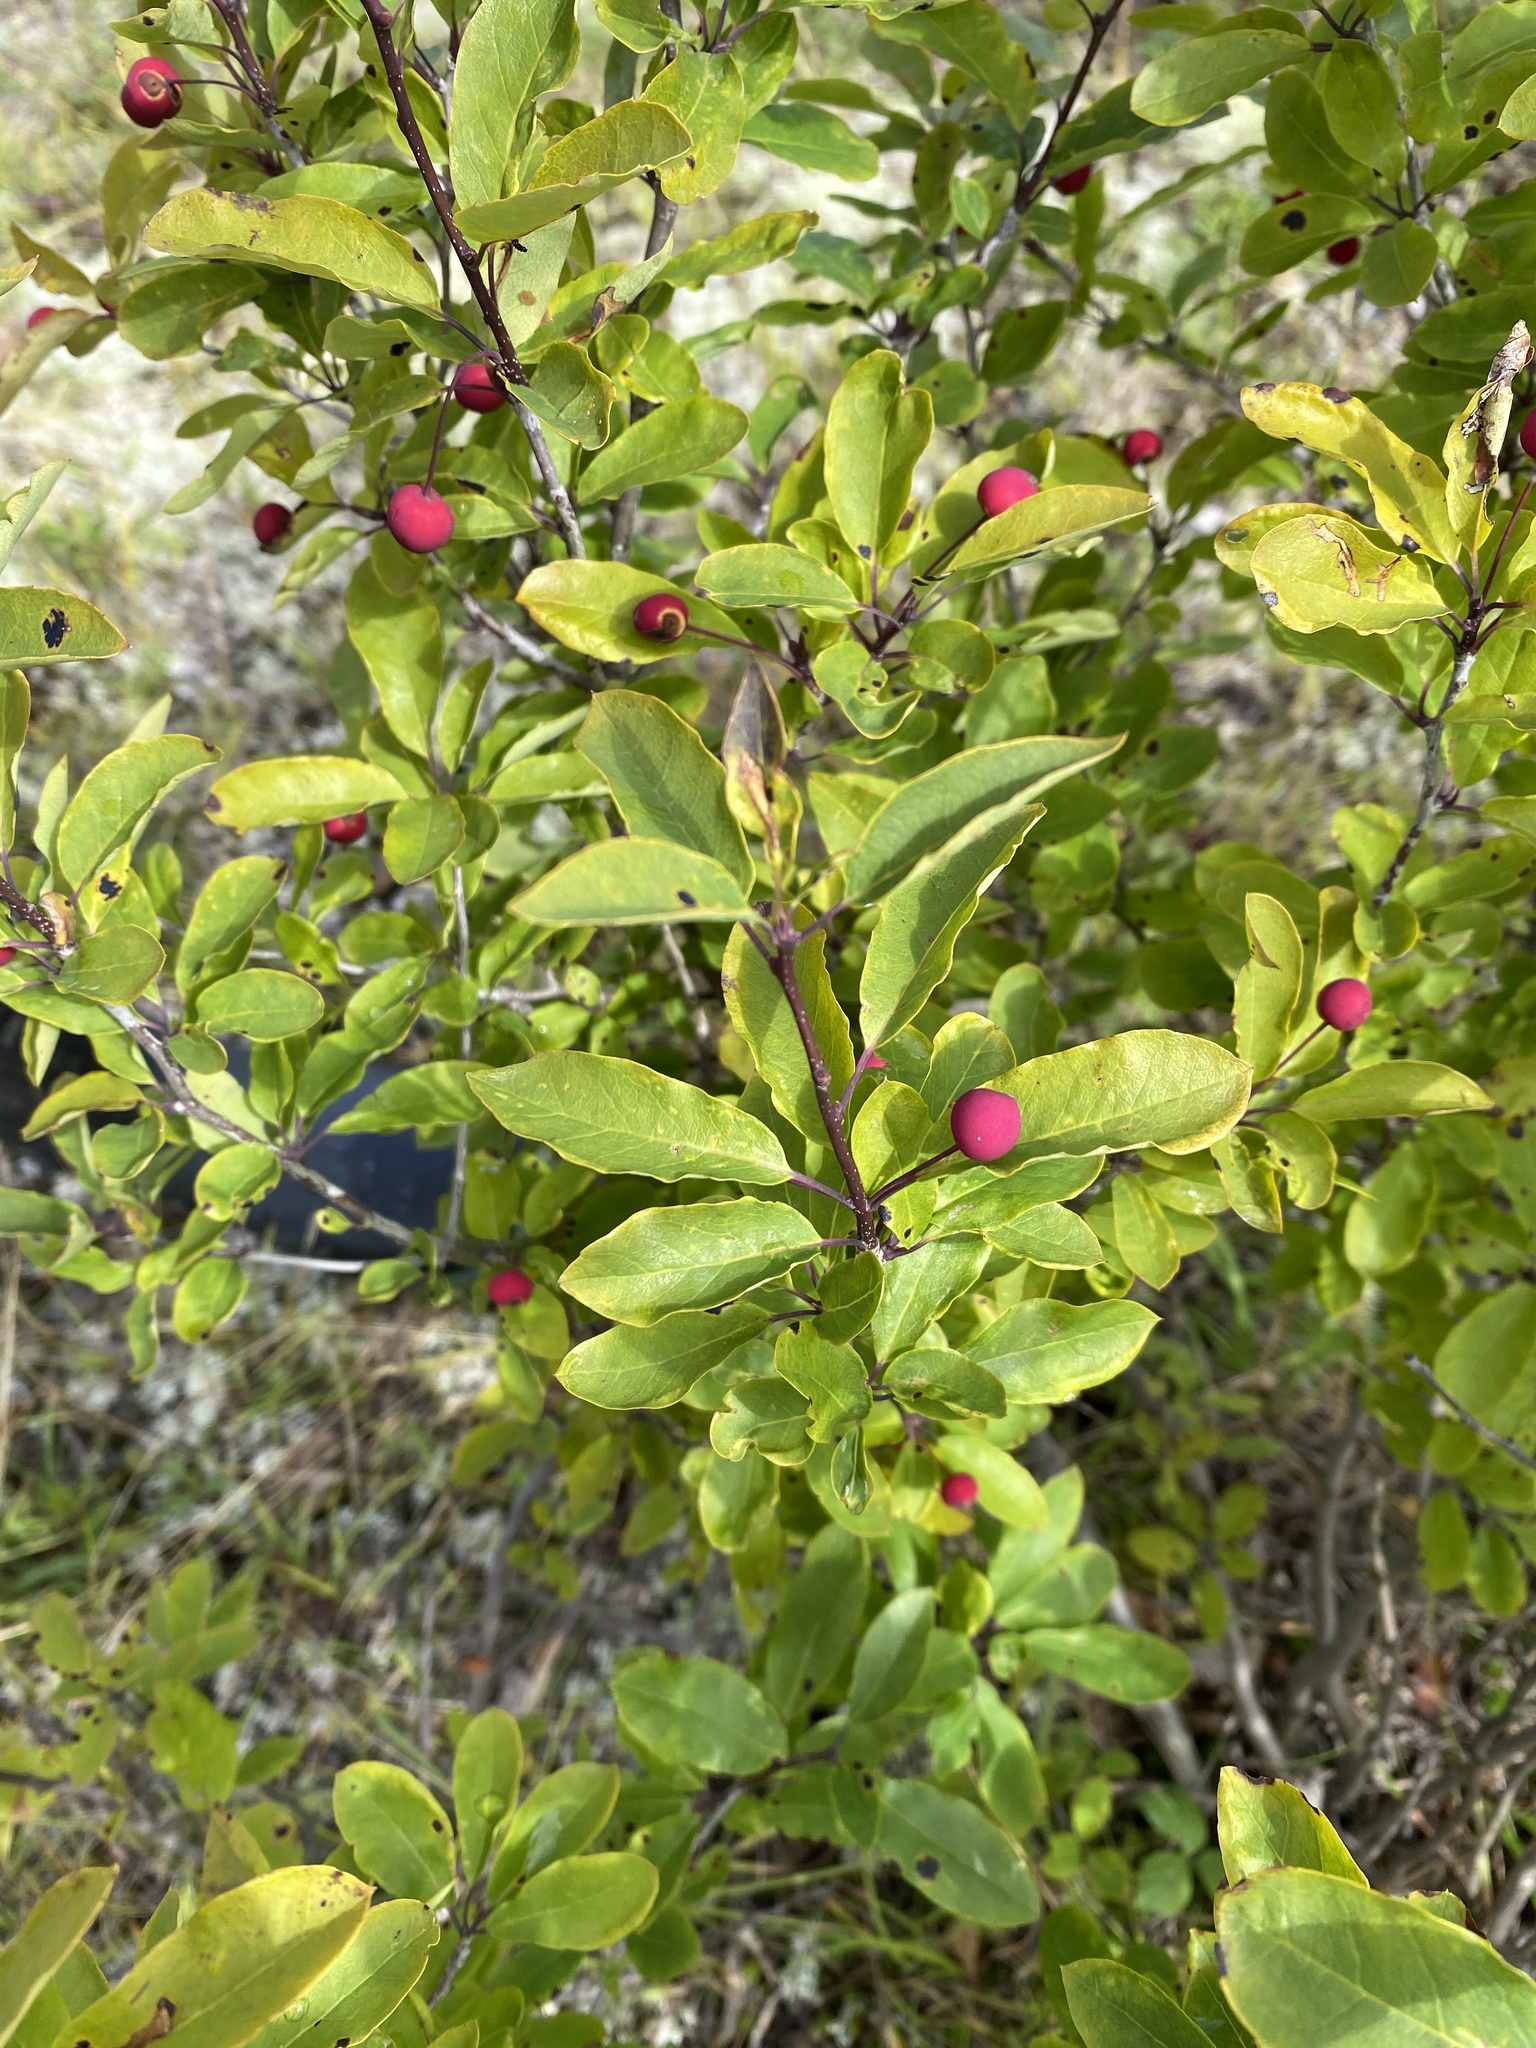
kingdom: Plantae
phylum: Tracheophyta
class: Magnoliopsida
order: Aquifoliales
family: Aquifoliaceae
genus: Ilex
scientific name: Ilex mucronata
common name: Catberry
